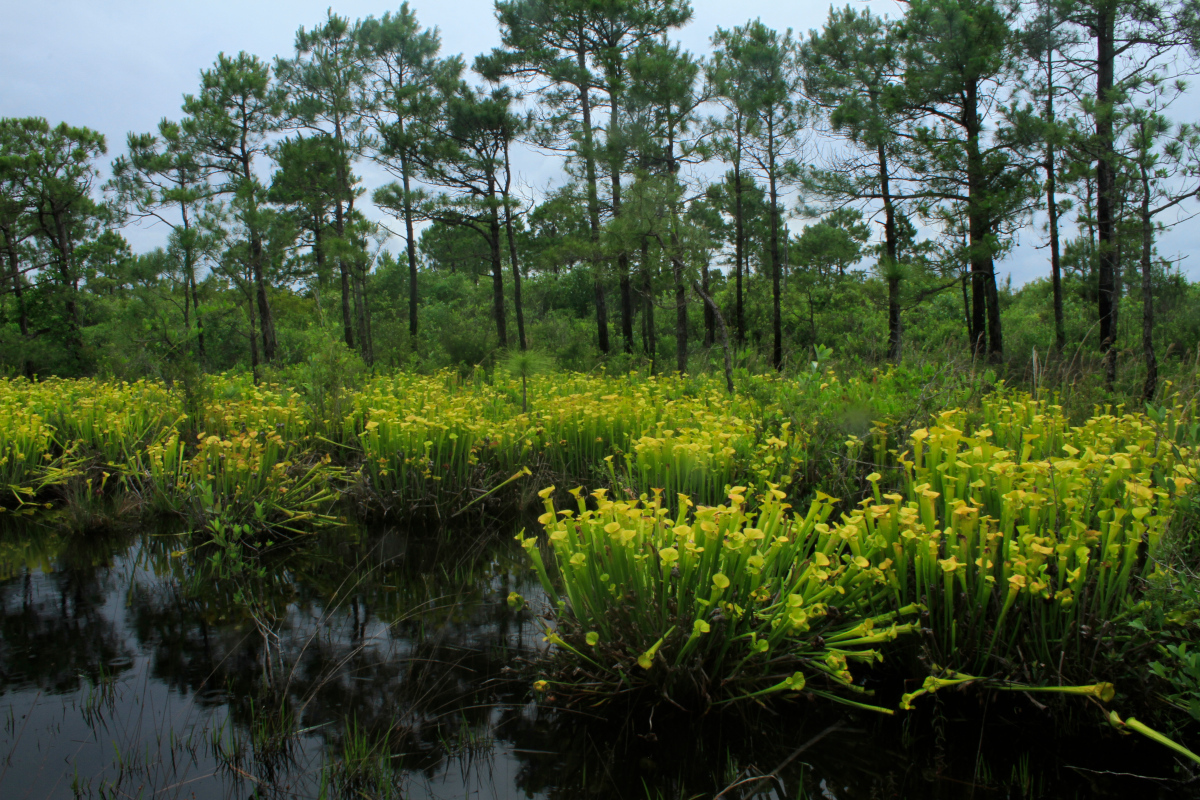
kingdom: Plantae
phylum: Tracheophyta
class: Magnoliopsida
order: Ericales
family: Sarraceniaceae
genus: Sarracenia
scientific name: Sarracenia flava
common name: Trumpets
